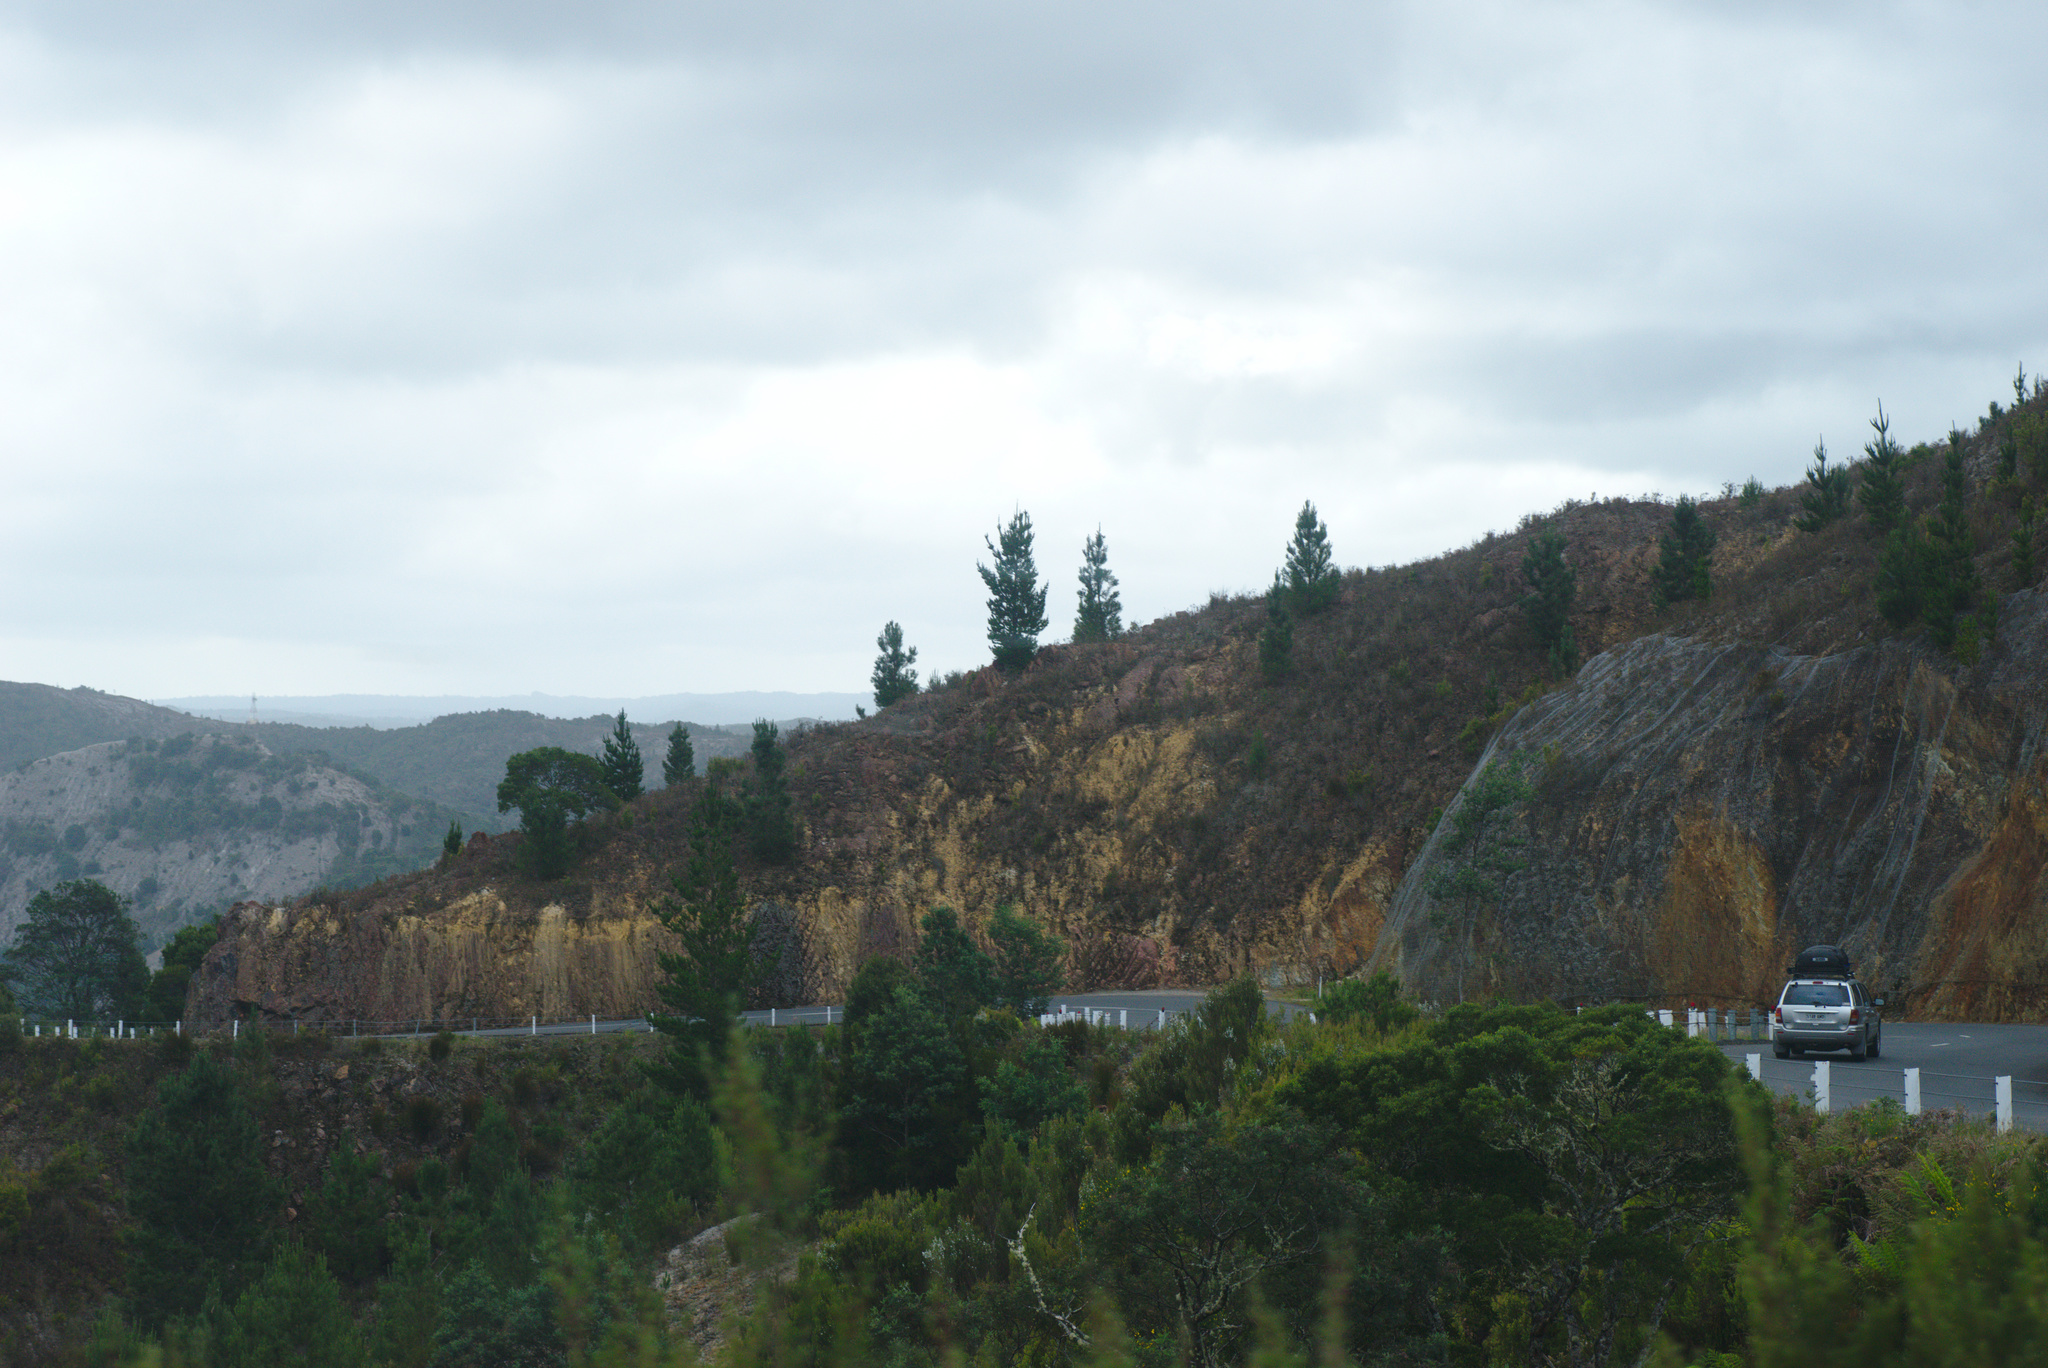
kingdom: Plantae
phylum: Tracheophyta
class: Pinopsida
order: Pinales
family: Pinaceae
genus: Pinus
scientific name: Pinus radiata
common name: Monterey pine
